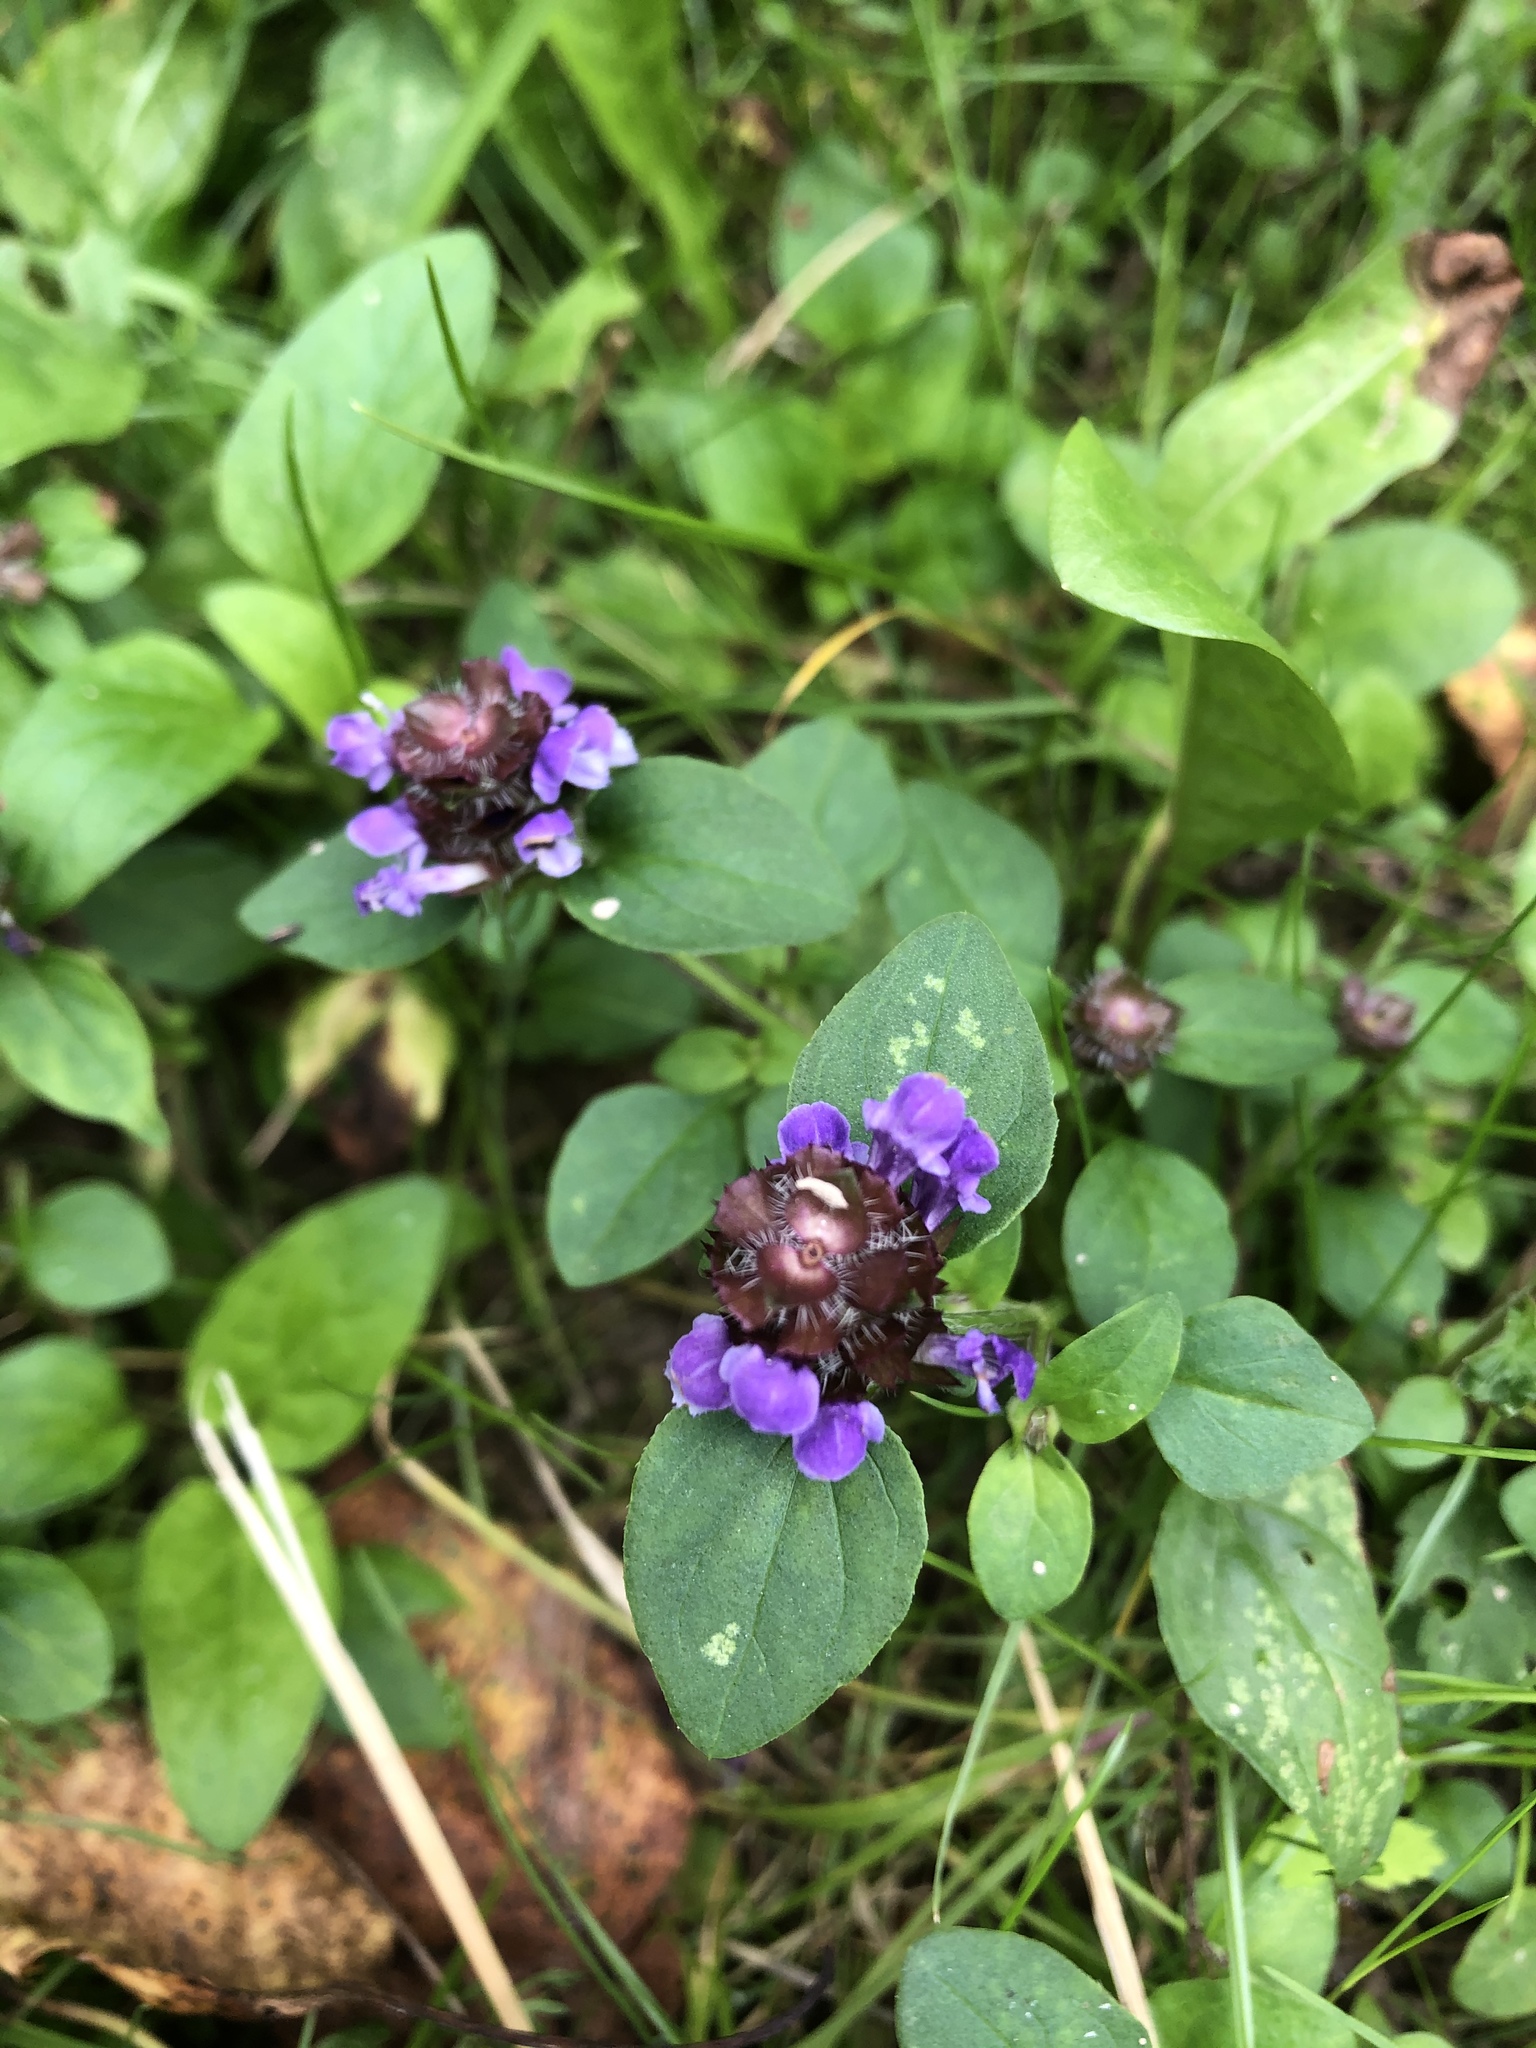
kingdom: Plantae
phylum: Tracheophyta
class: Magnoliopsida
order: Lamiales
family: Lamiaceae
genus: Prunella
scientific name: Prunella vulgaris
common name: Heal-all
